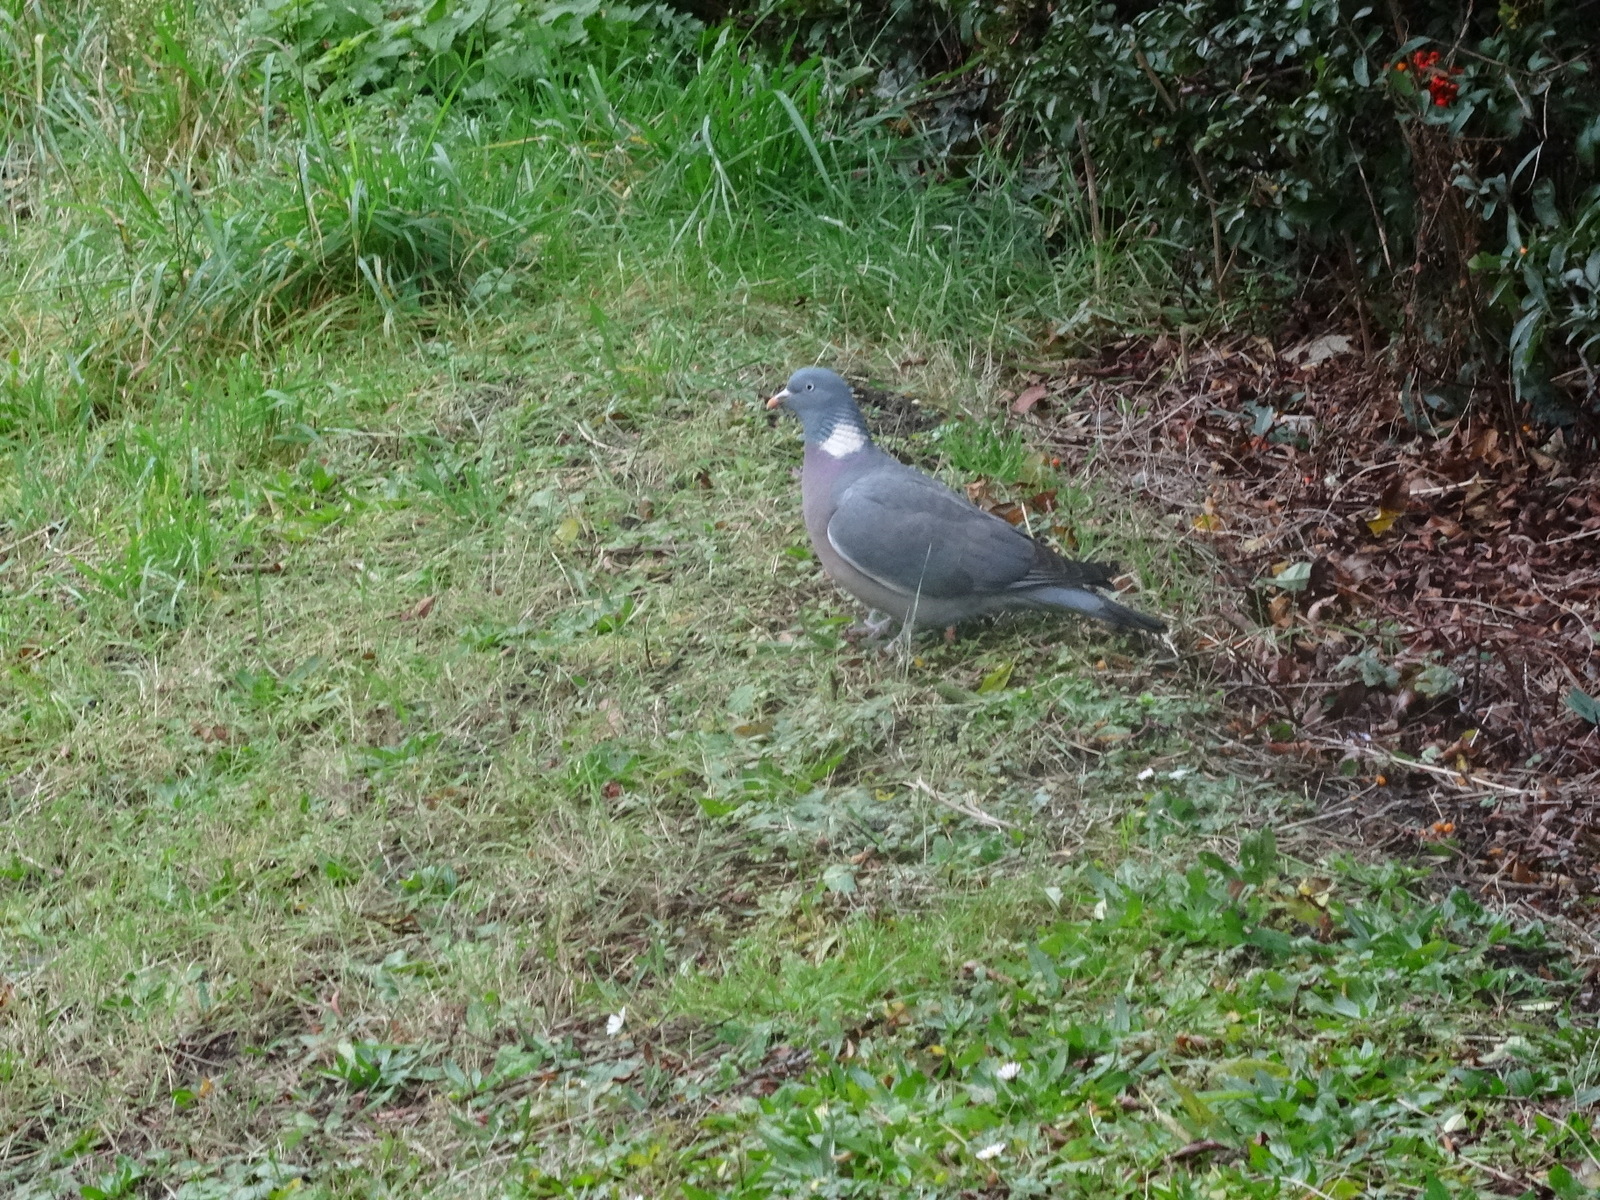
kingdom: Animalia
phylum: Chordata
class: Aves
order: Columbiformes
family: Columbidae
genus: Columba
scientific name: Columba palumbus
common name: Common wood pigeon
